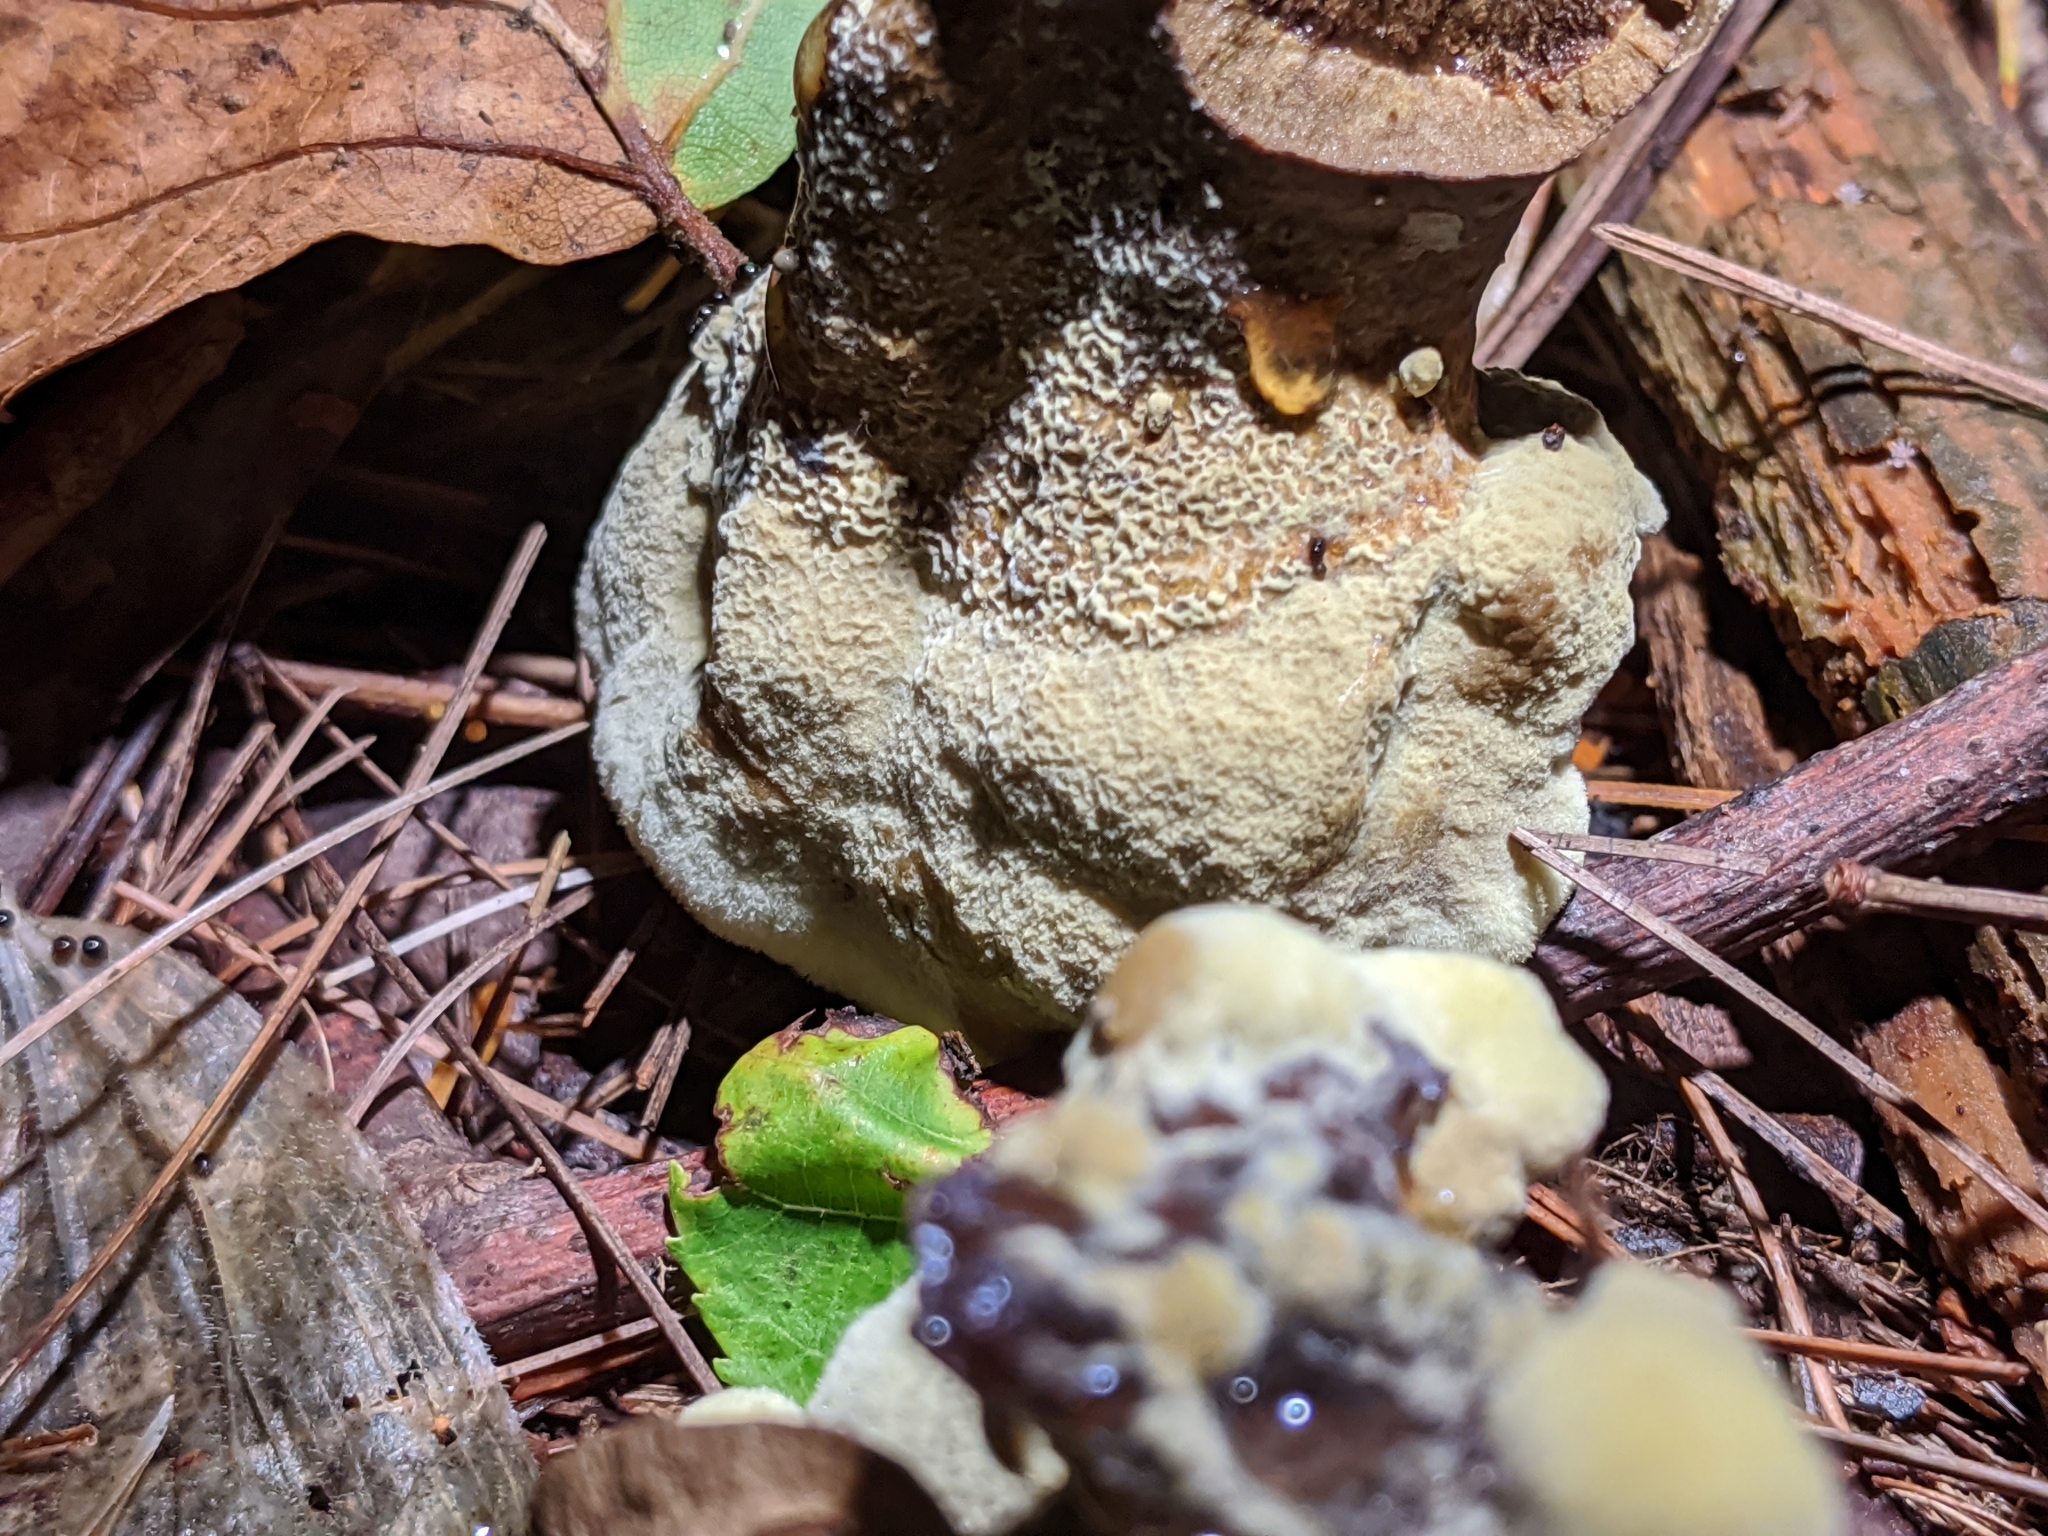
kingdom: Fungi
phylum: Basidiomycota
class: Agaricomycetes
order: Polyporales
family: Laetiporaceae
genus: Phaeolus
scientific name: Phaeolus schweinitzii
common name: Dyer's mazegill
